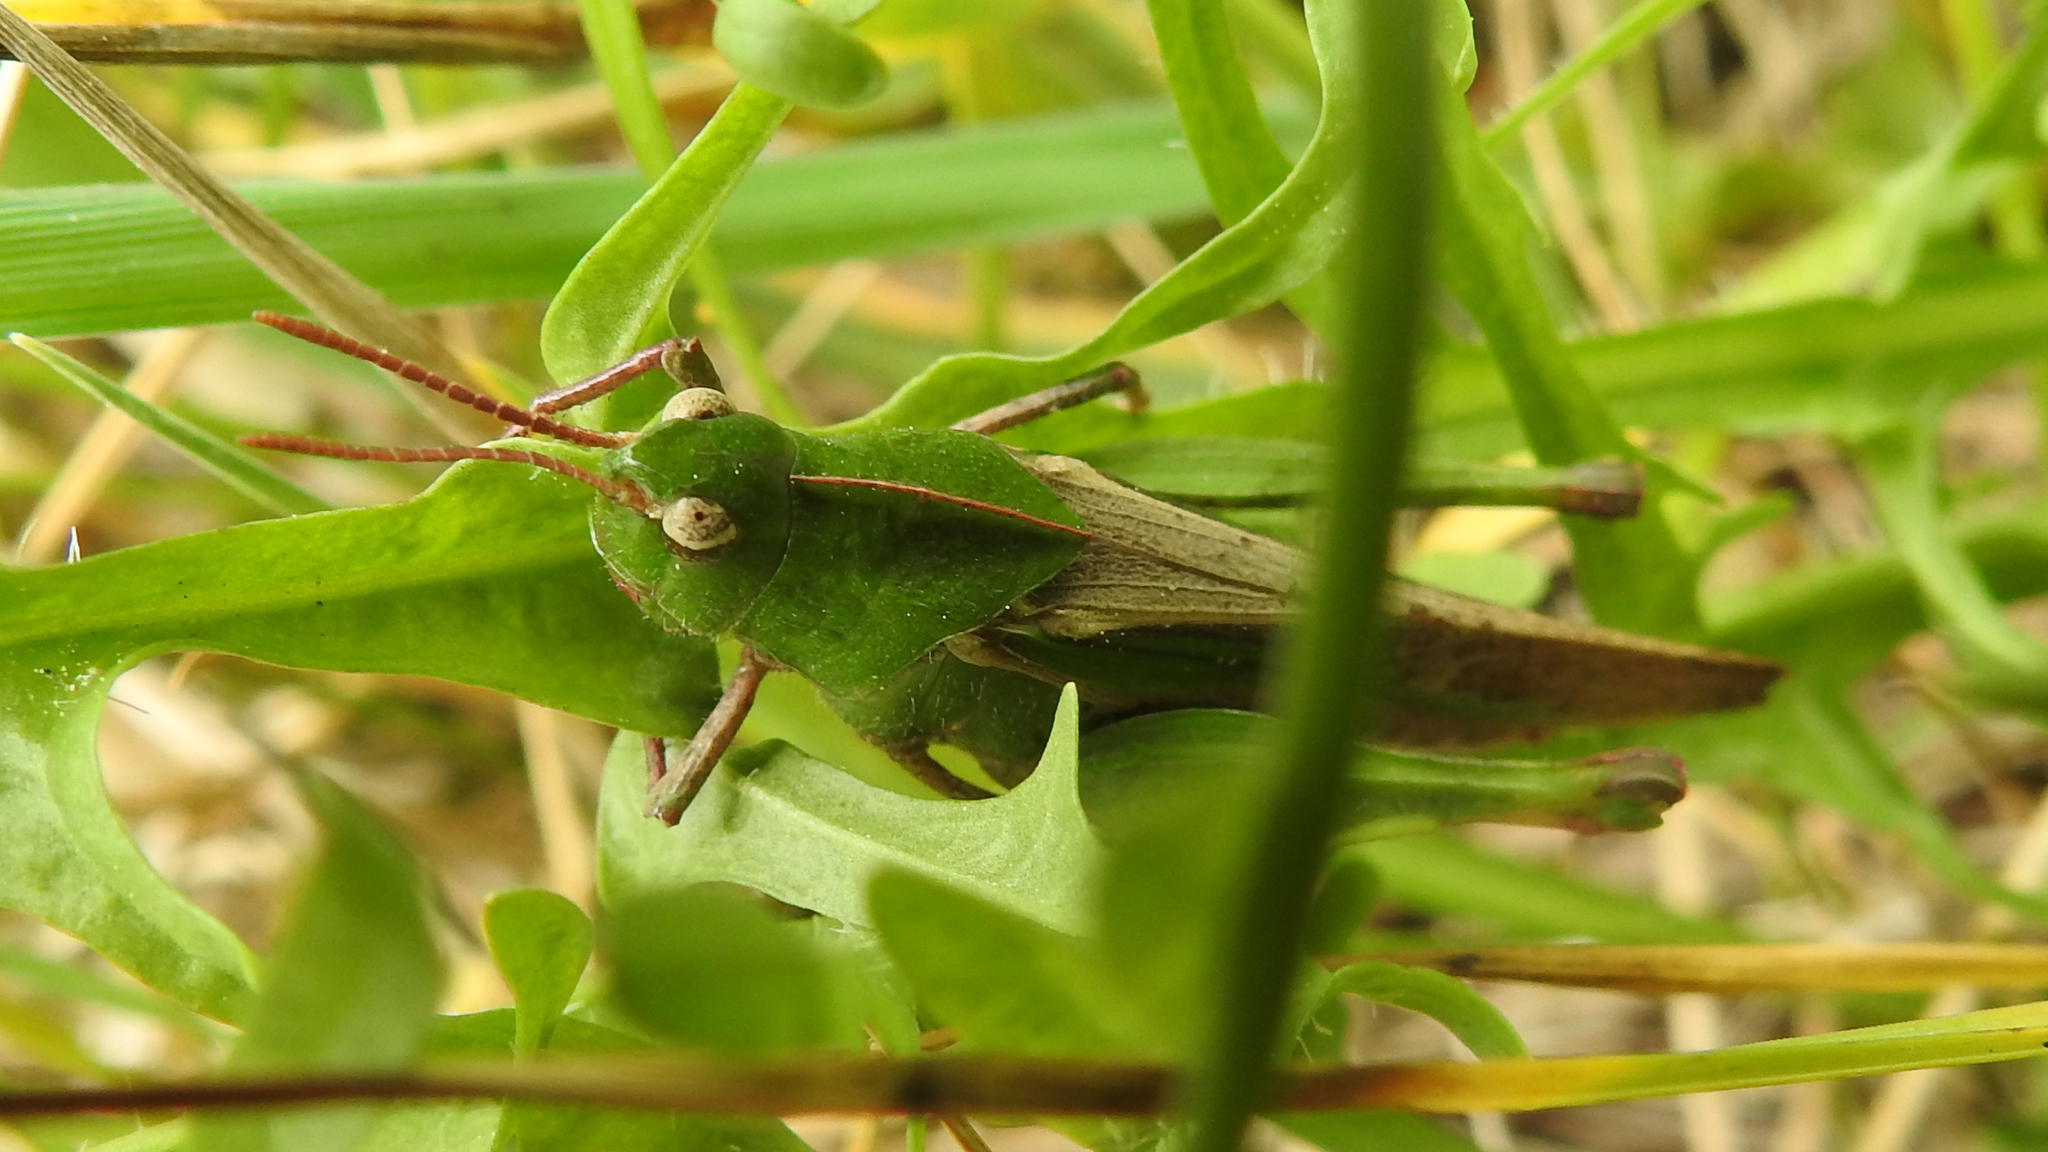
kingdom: Animalia
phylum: Arthropoda
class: Insecta
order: Orthoptera
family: Acrididae
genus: Chortophaga
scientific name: Chortophaga viridifasciata
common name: Green-striped grasshopper
